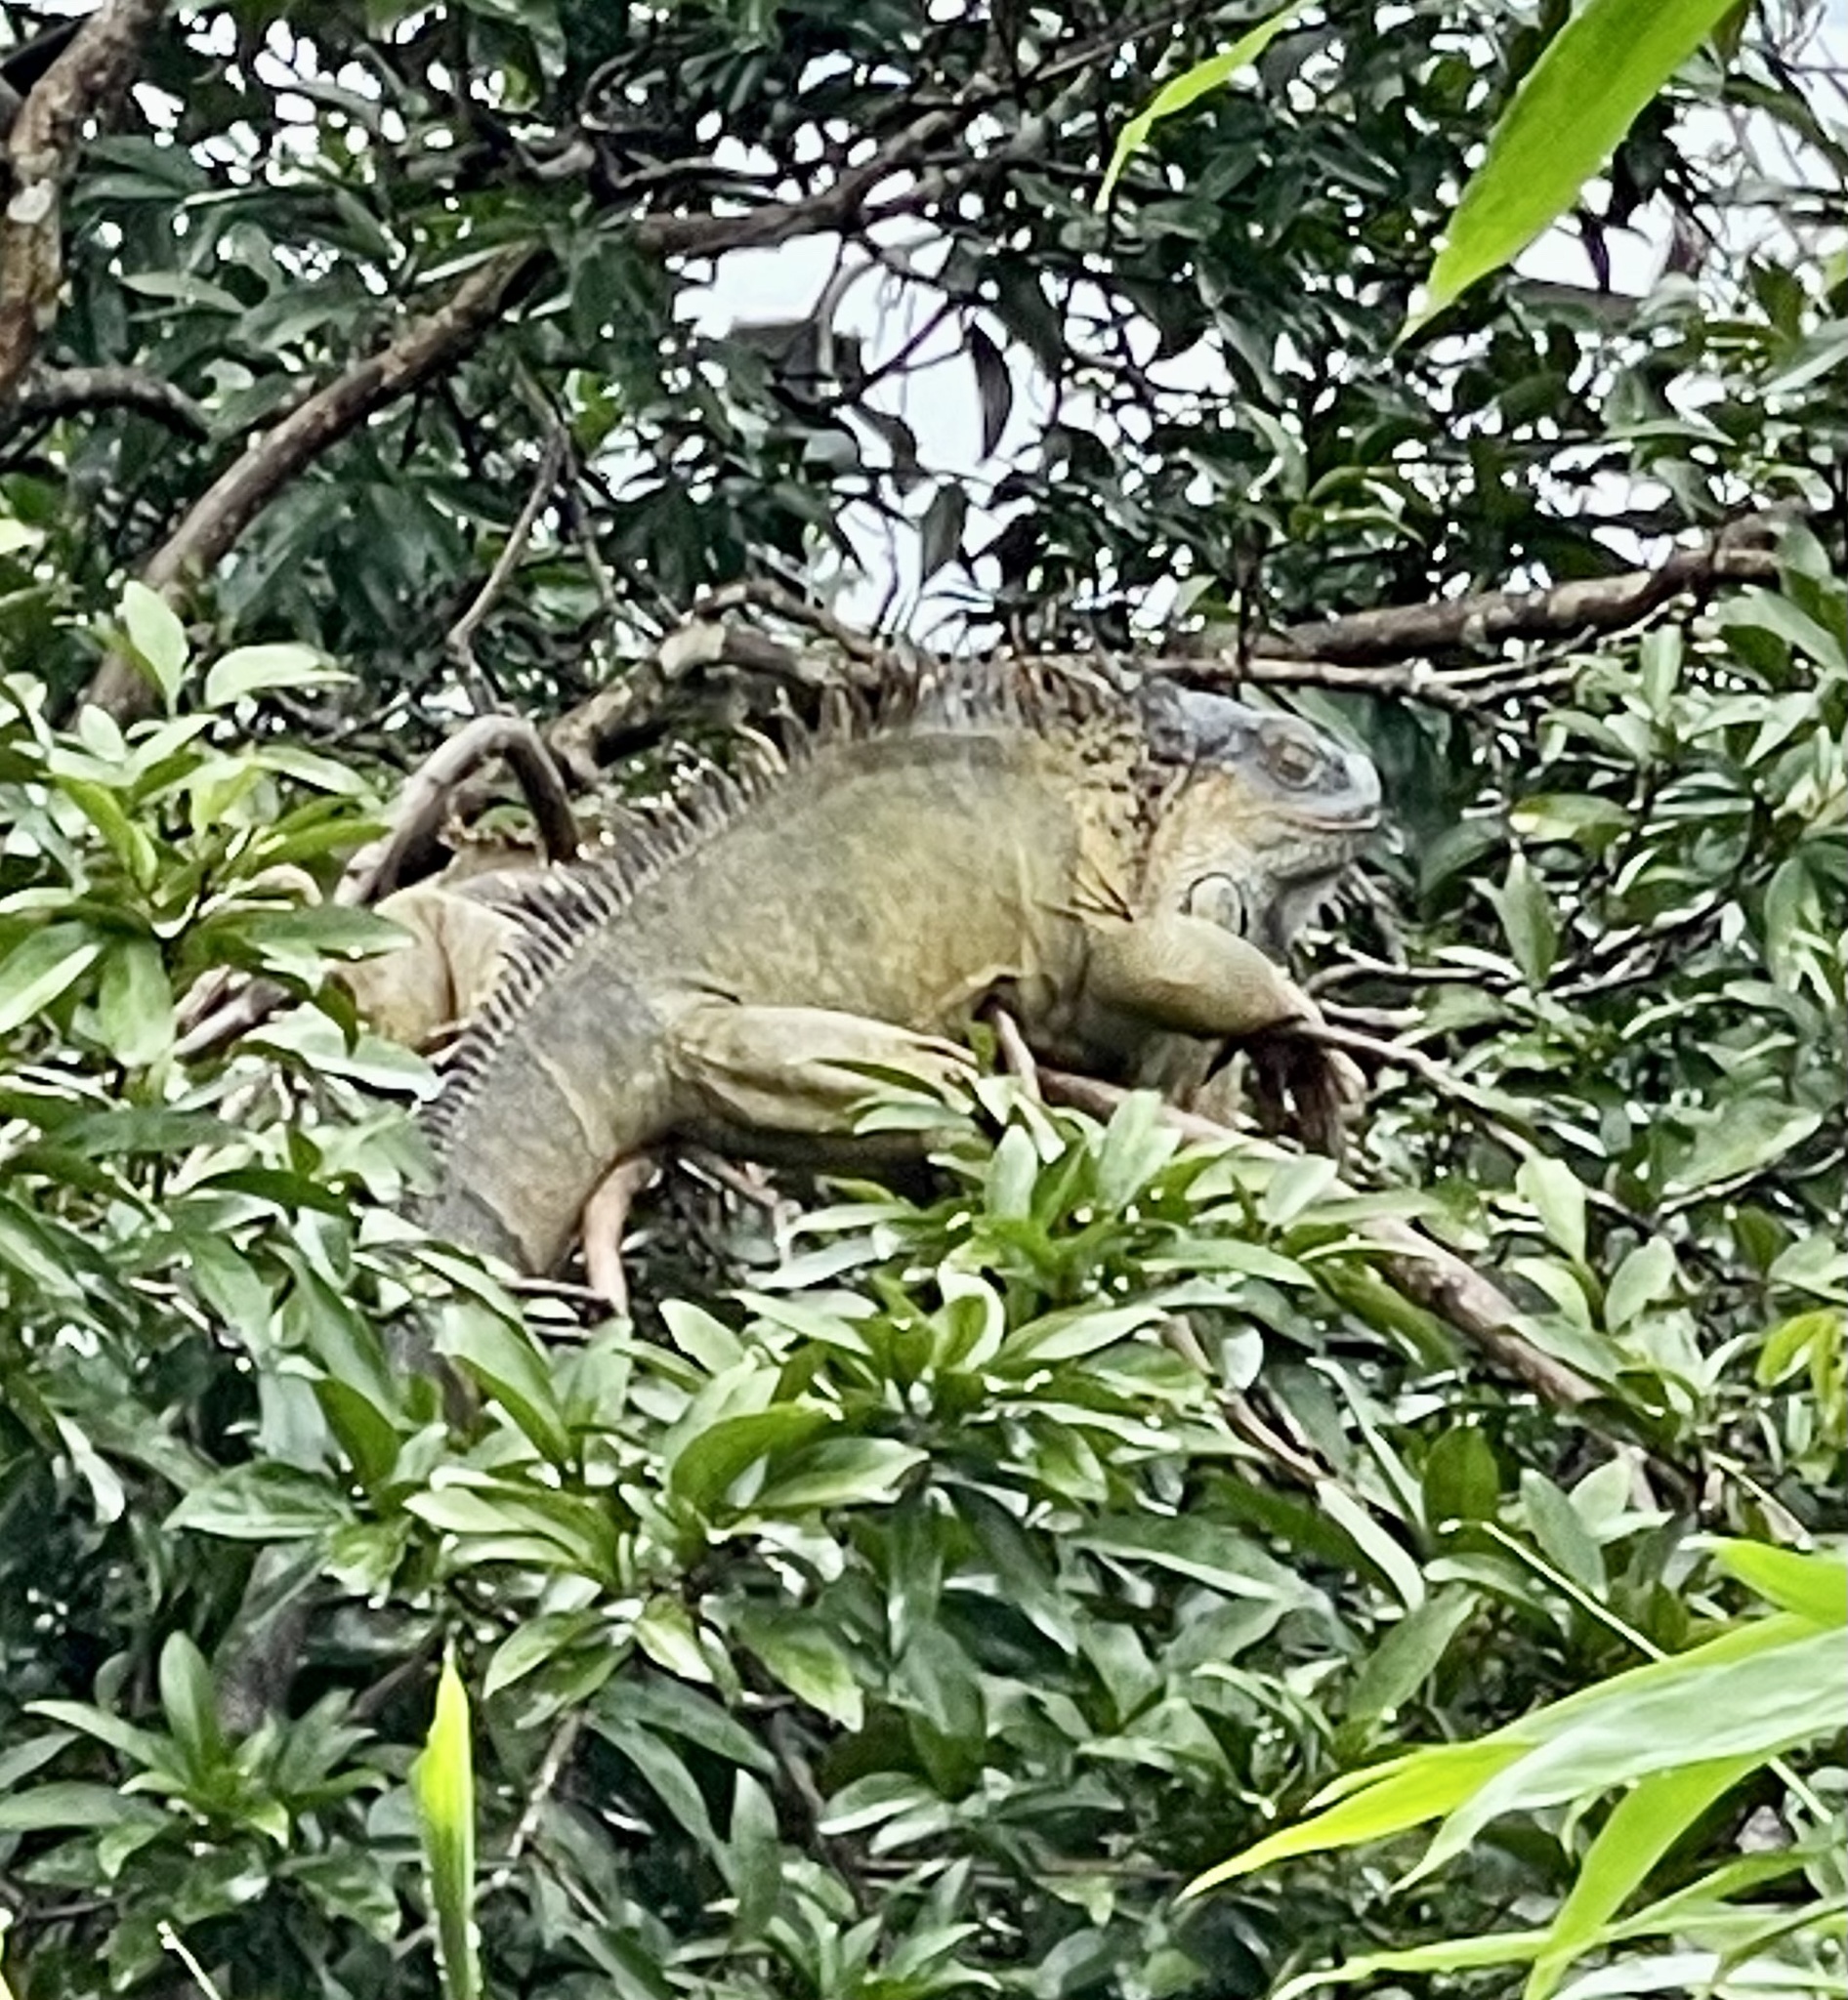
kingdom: Animalia
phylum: Chordata
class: Squamata
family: Iguanidae
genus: Iguana
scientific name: Iguana iguana
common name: Green iguana
